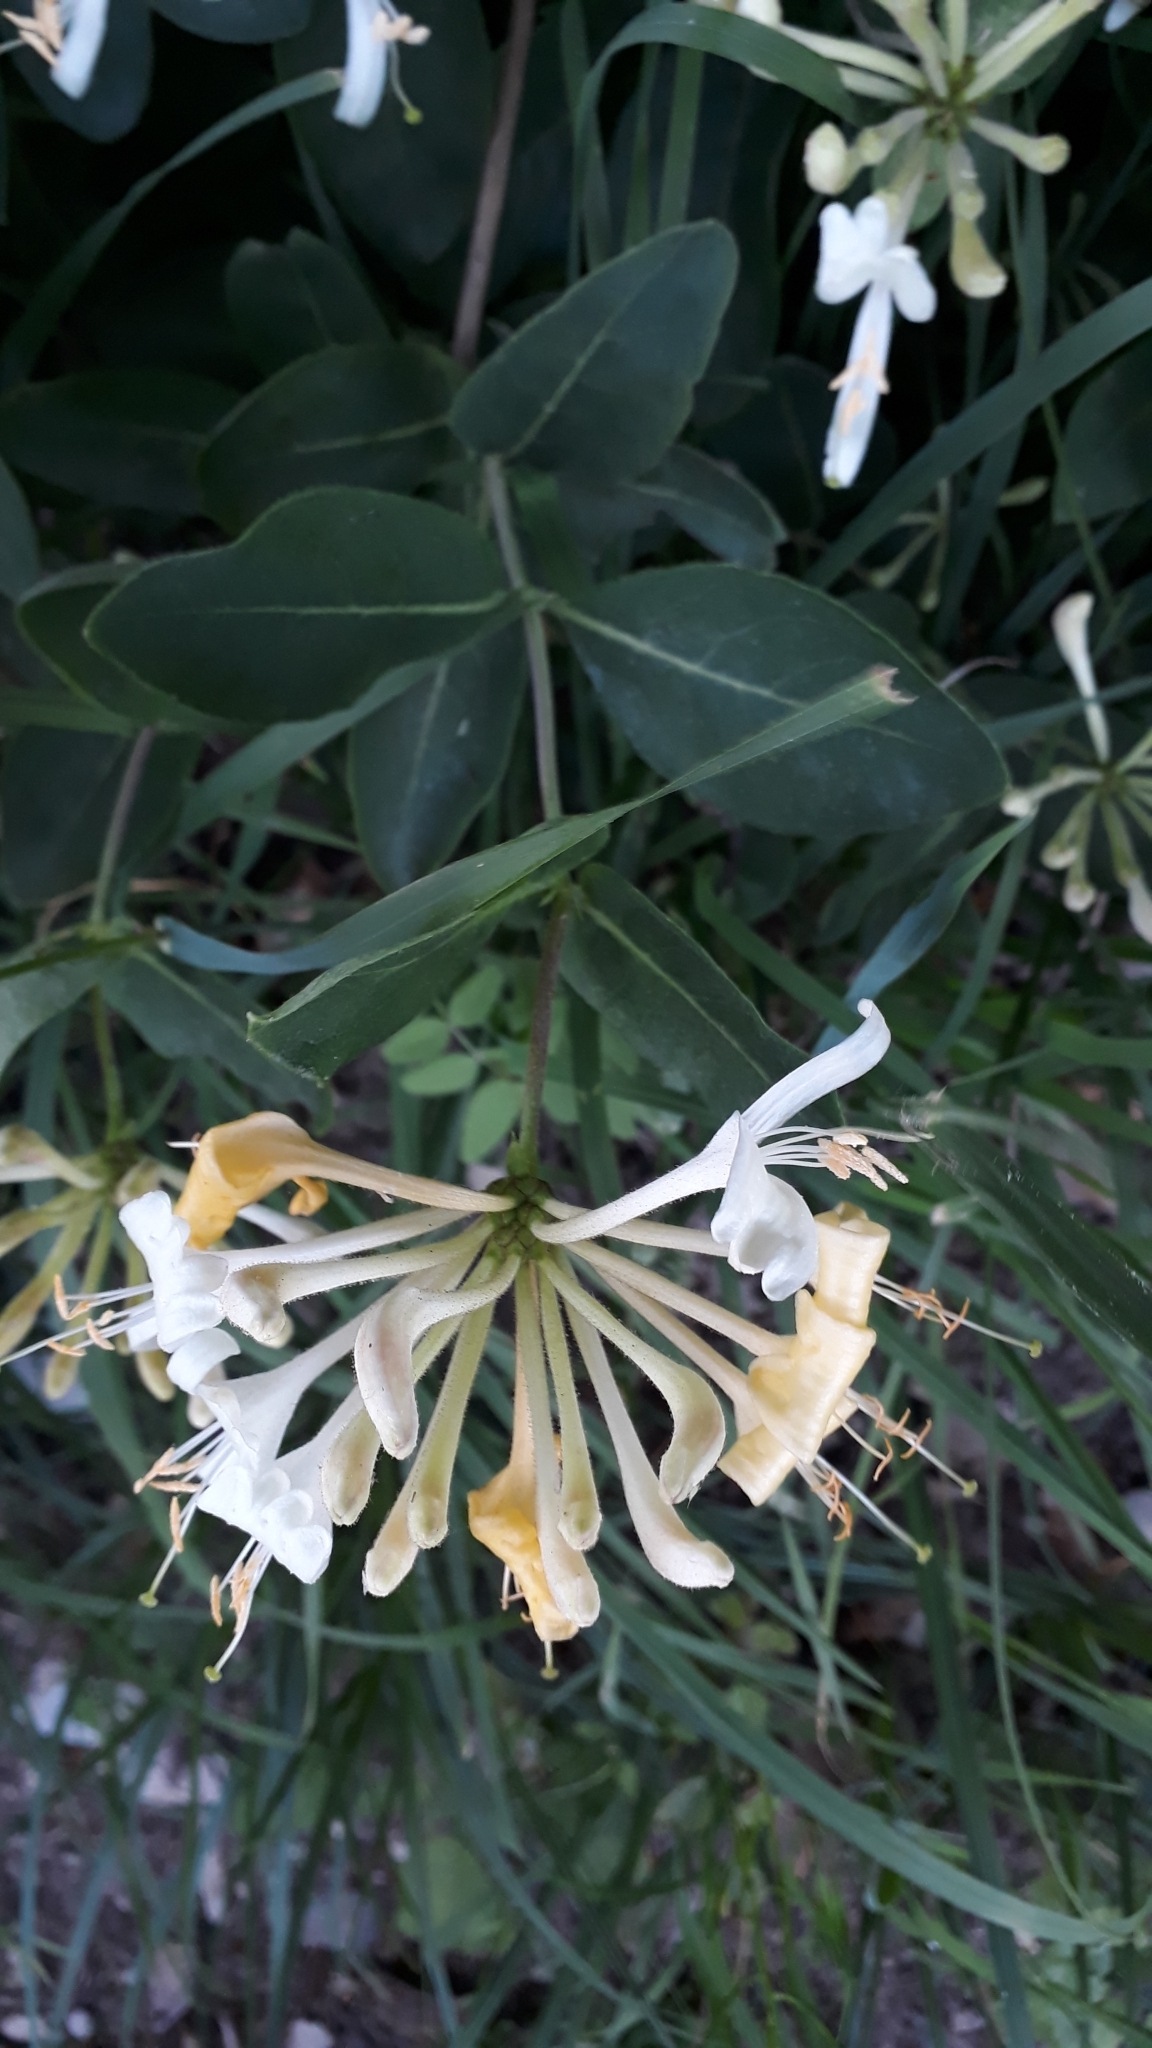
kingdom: Plantae
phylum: Tracheophyta
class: Magnoliopsida
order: Dipsacales
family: Caprifoliaceae
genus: Lonicera
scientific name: Lonicera periclymenum
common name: European honeysuckle
